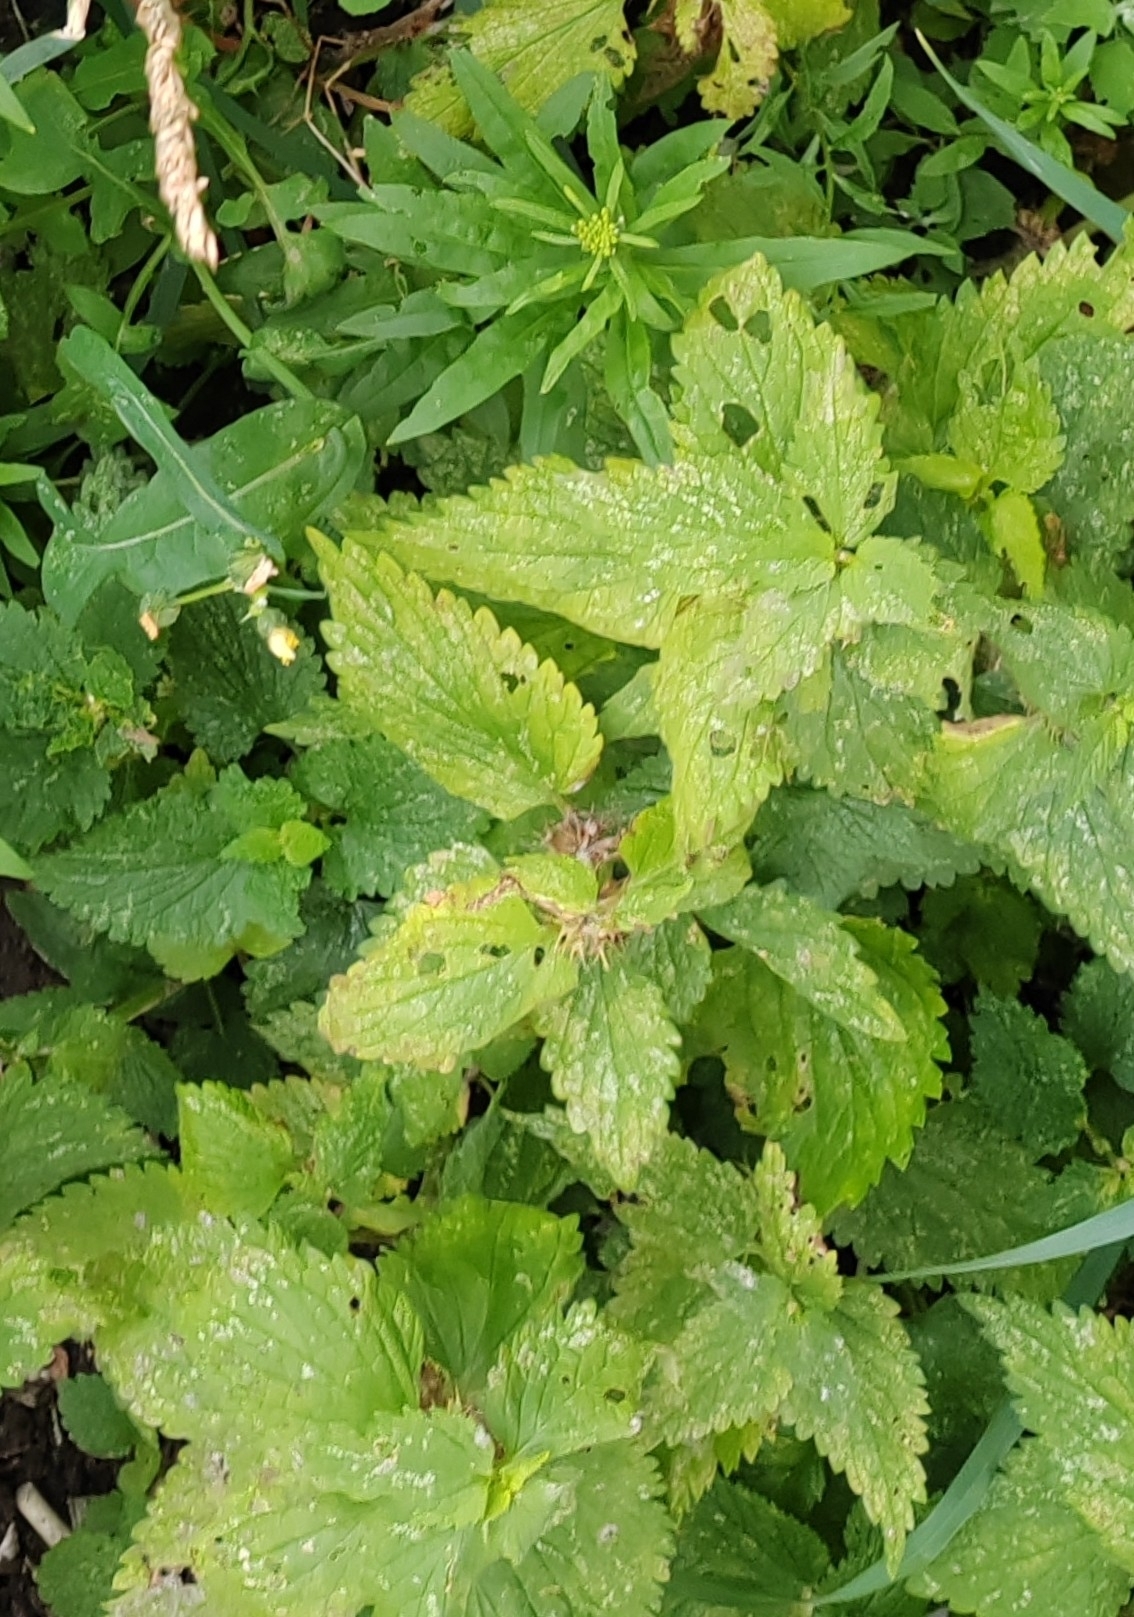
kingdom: Plantae
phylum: Tracheophyta
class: Magnoliopsida
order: Lamiales
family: Lamiaceae
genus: Lamium
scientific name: Lamium album
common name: White dead-nettle
